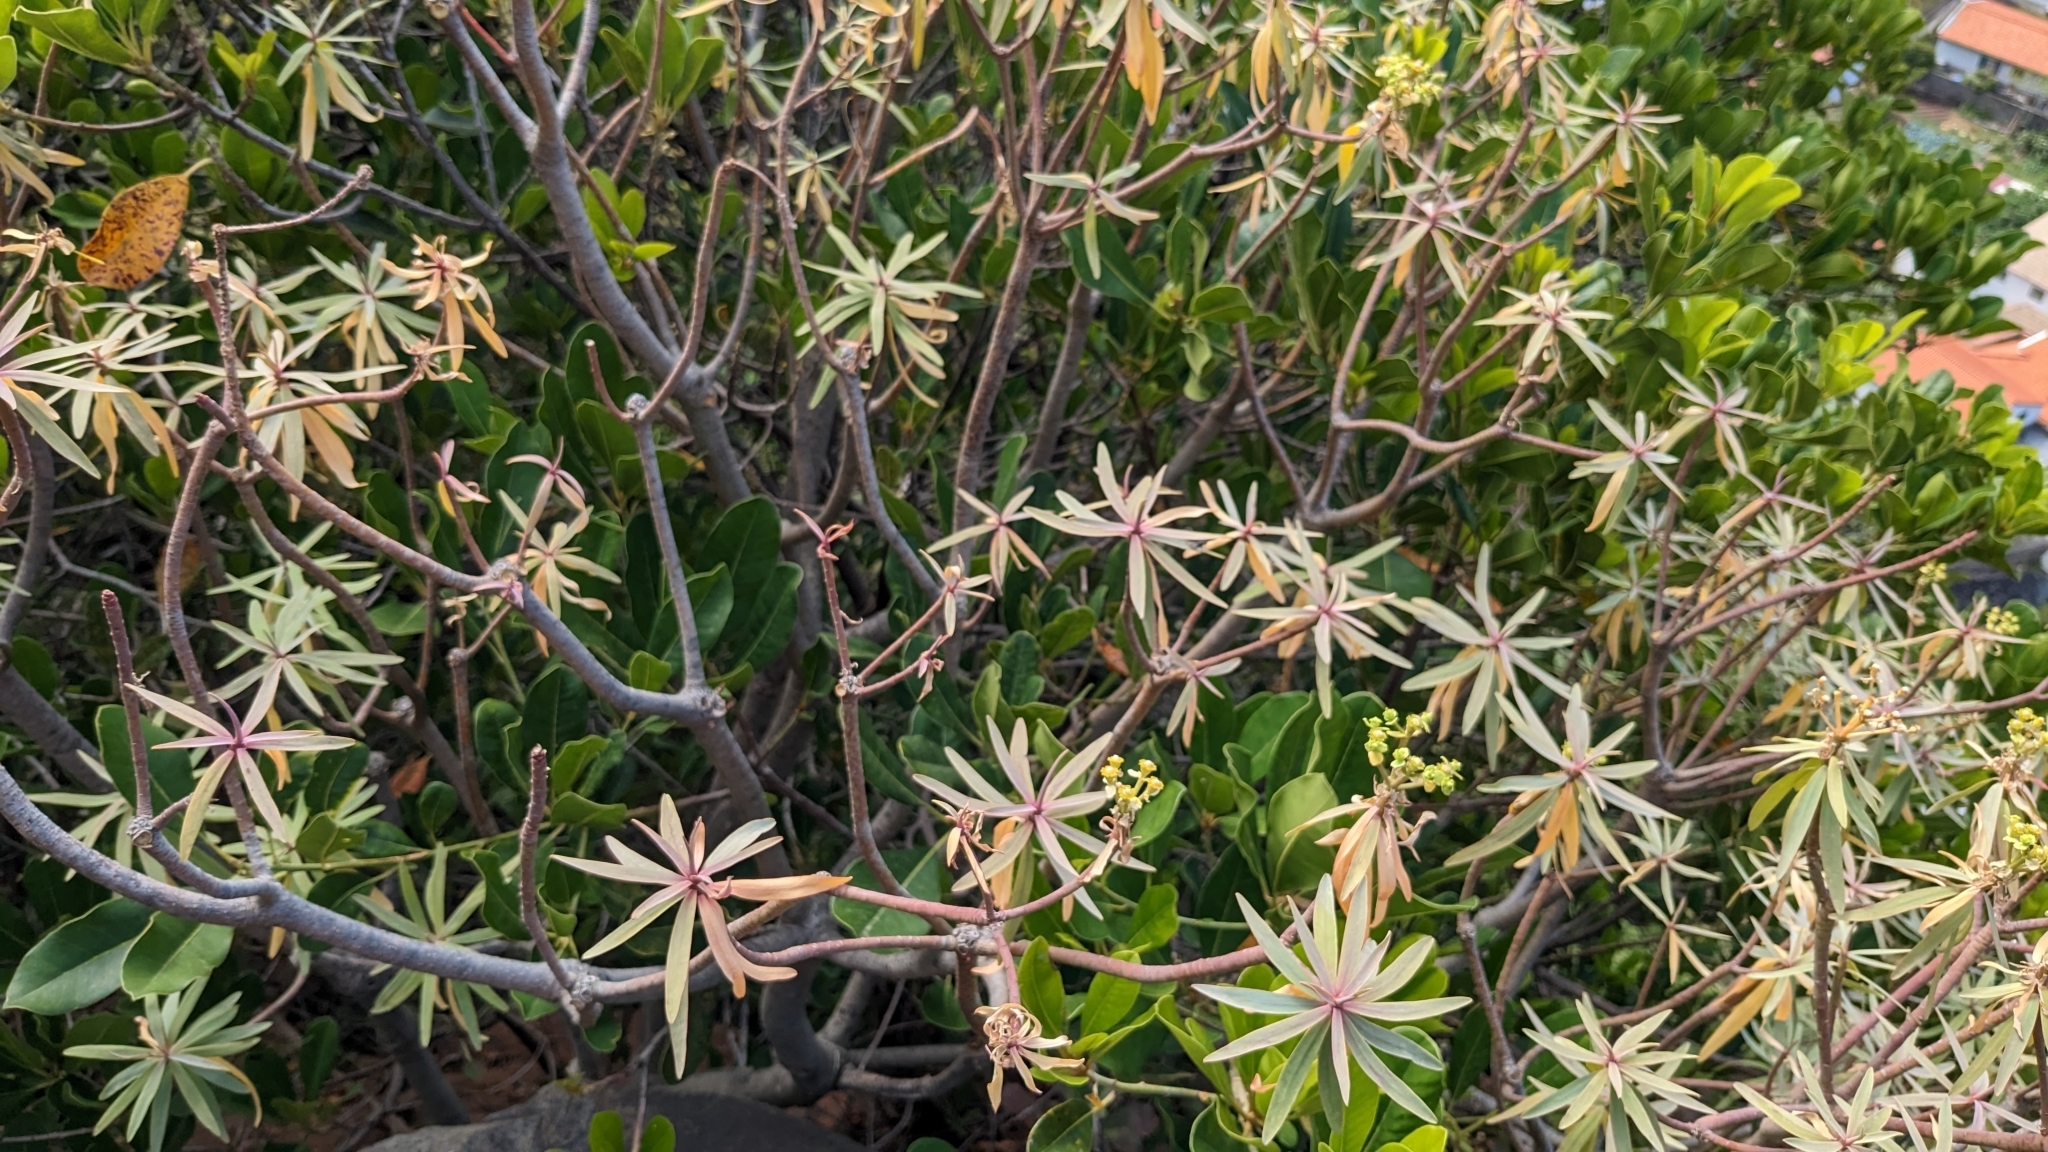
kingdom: Plantae
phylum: Tracheophyta
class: Magnoliopsida
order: Malpighiales
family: Euphorbiaceae
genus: Euphorbia
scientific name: Euphorbia piscatoria
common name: Fish-stunning spurge
